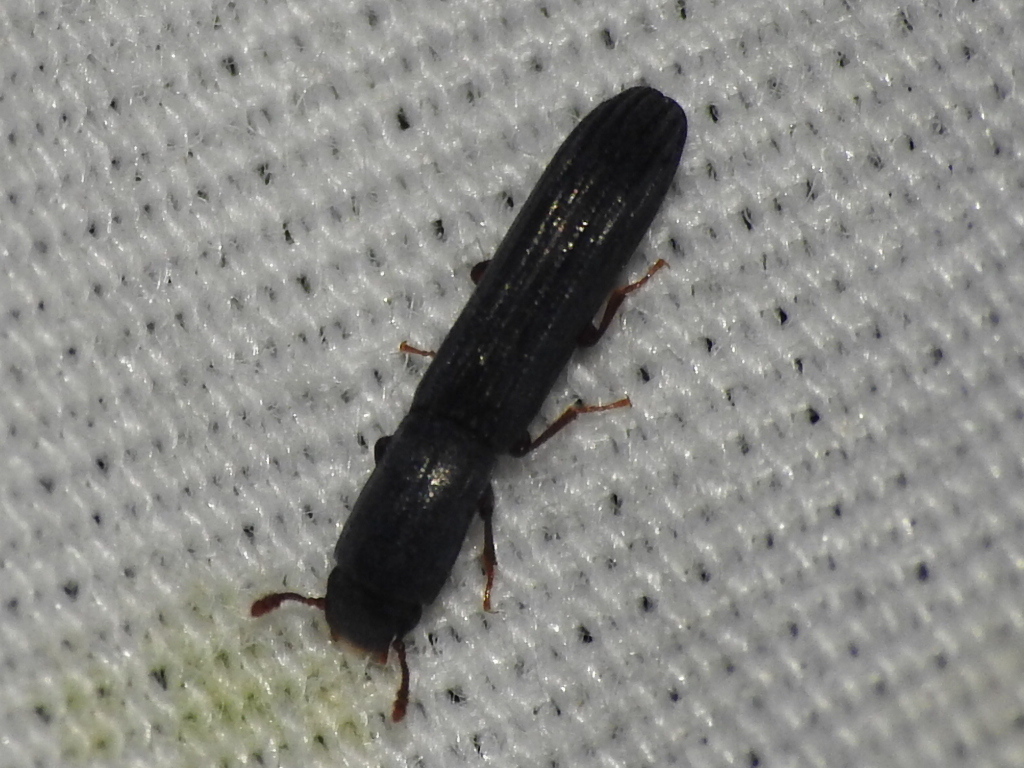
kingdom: Animalia
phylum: Arthropoda
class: Insecta
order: Coleoptera
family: Zopheridae
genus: Colydium
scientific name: Colydium lineola
